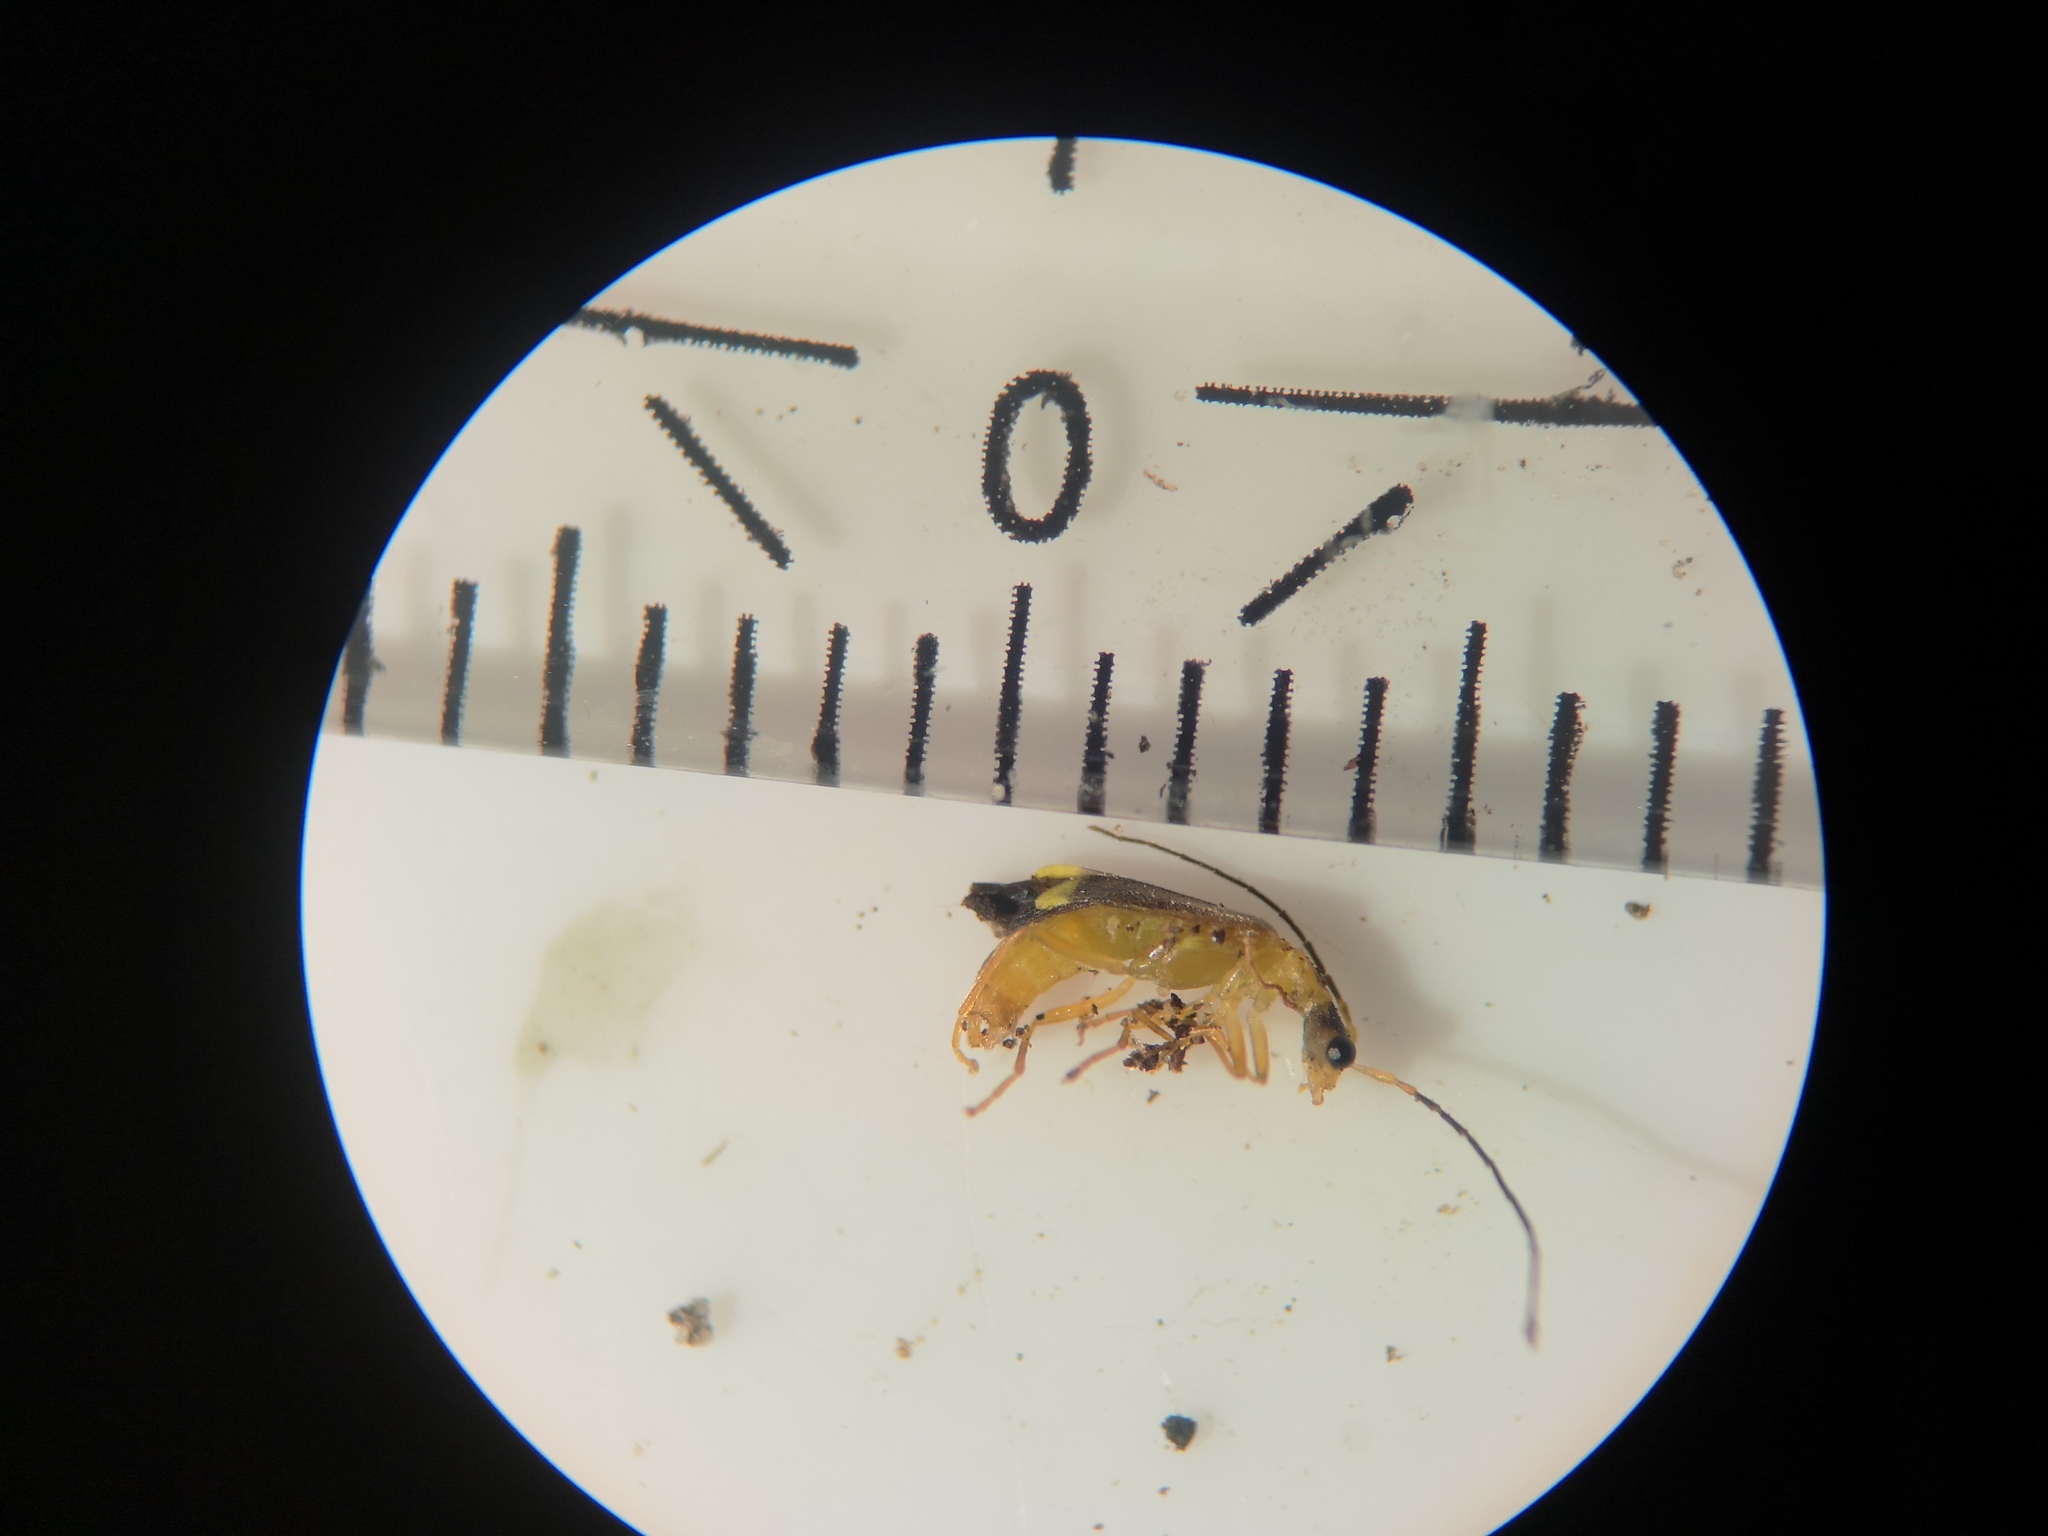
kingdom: Animalia
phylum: Arthropoda
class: Insecta
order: Coleoptera
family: Cantharidae
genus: Malthinus
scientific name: Malthinus flaveolus
